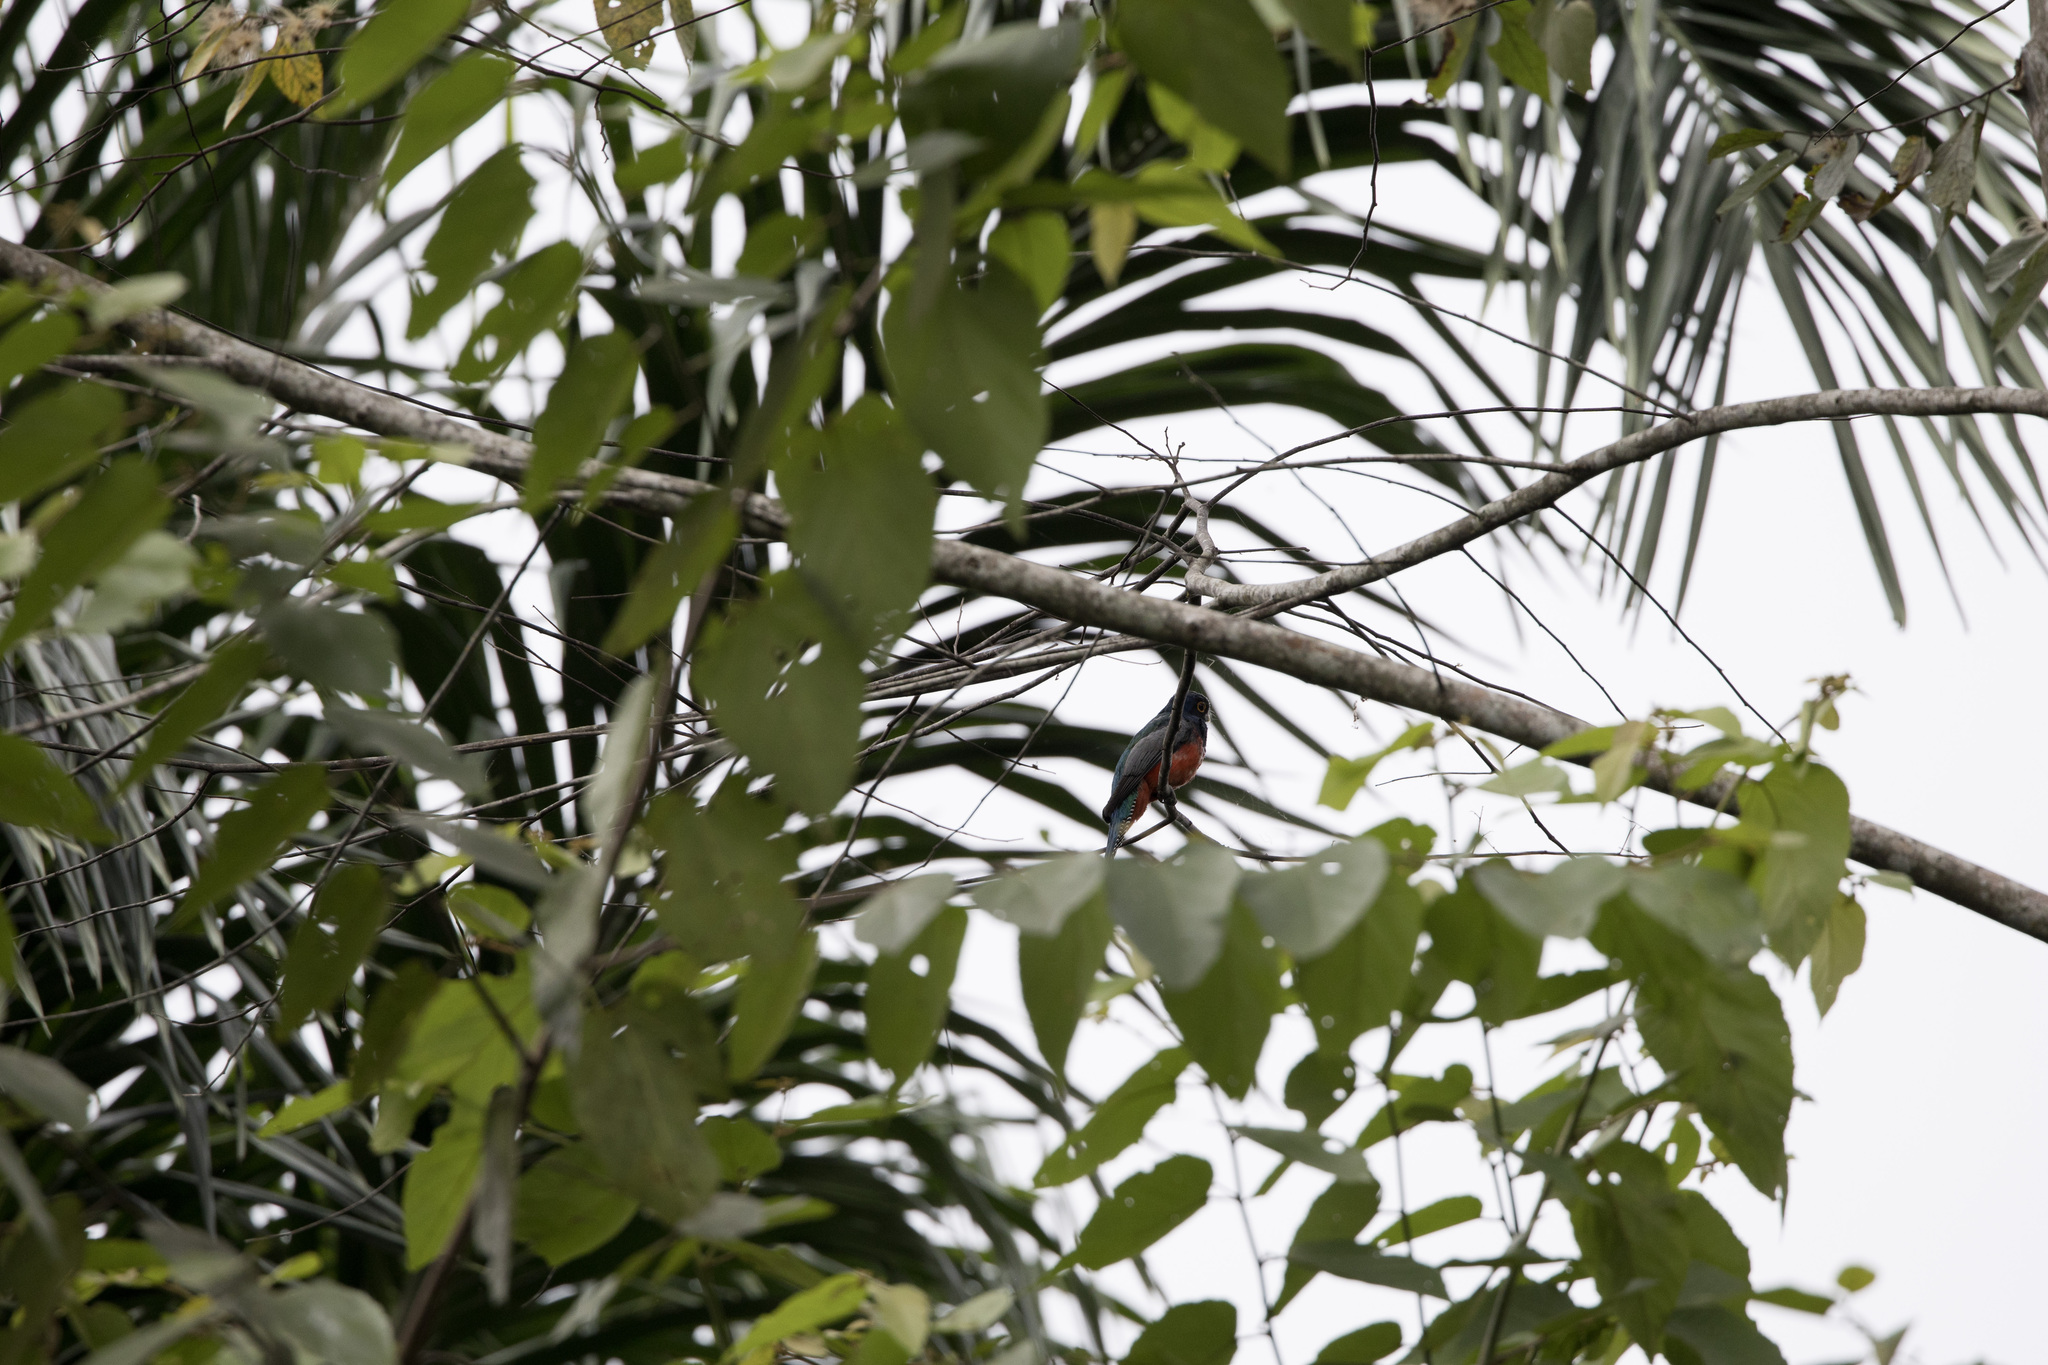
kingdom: Animalia
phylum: Chordata
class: Aves
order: Trogoniformes
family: Trogonidae
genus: Trogon
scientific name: Trogon curucui
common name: Blue-crowned trogon
